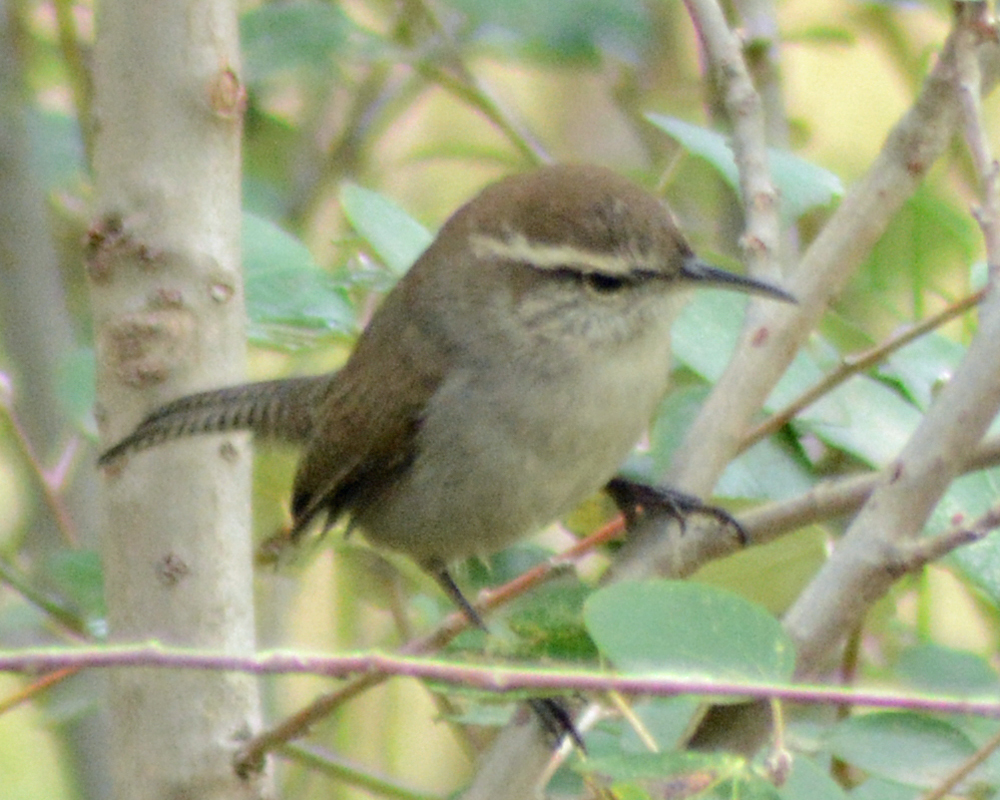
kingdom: Animalia
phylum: Chordata
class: Aves
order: Passeriformes
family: Troglodytidae
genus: Thryomanes
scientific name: Thryomanes bewickii
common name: Bewick's wren
